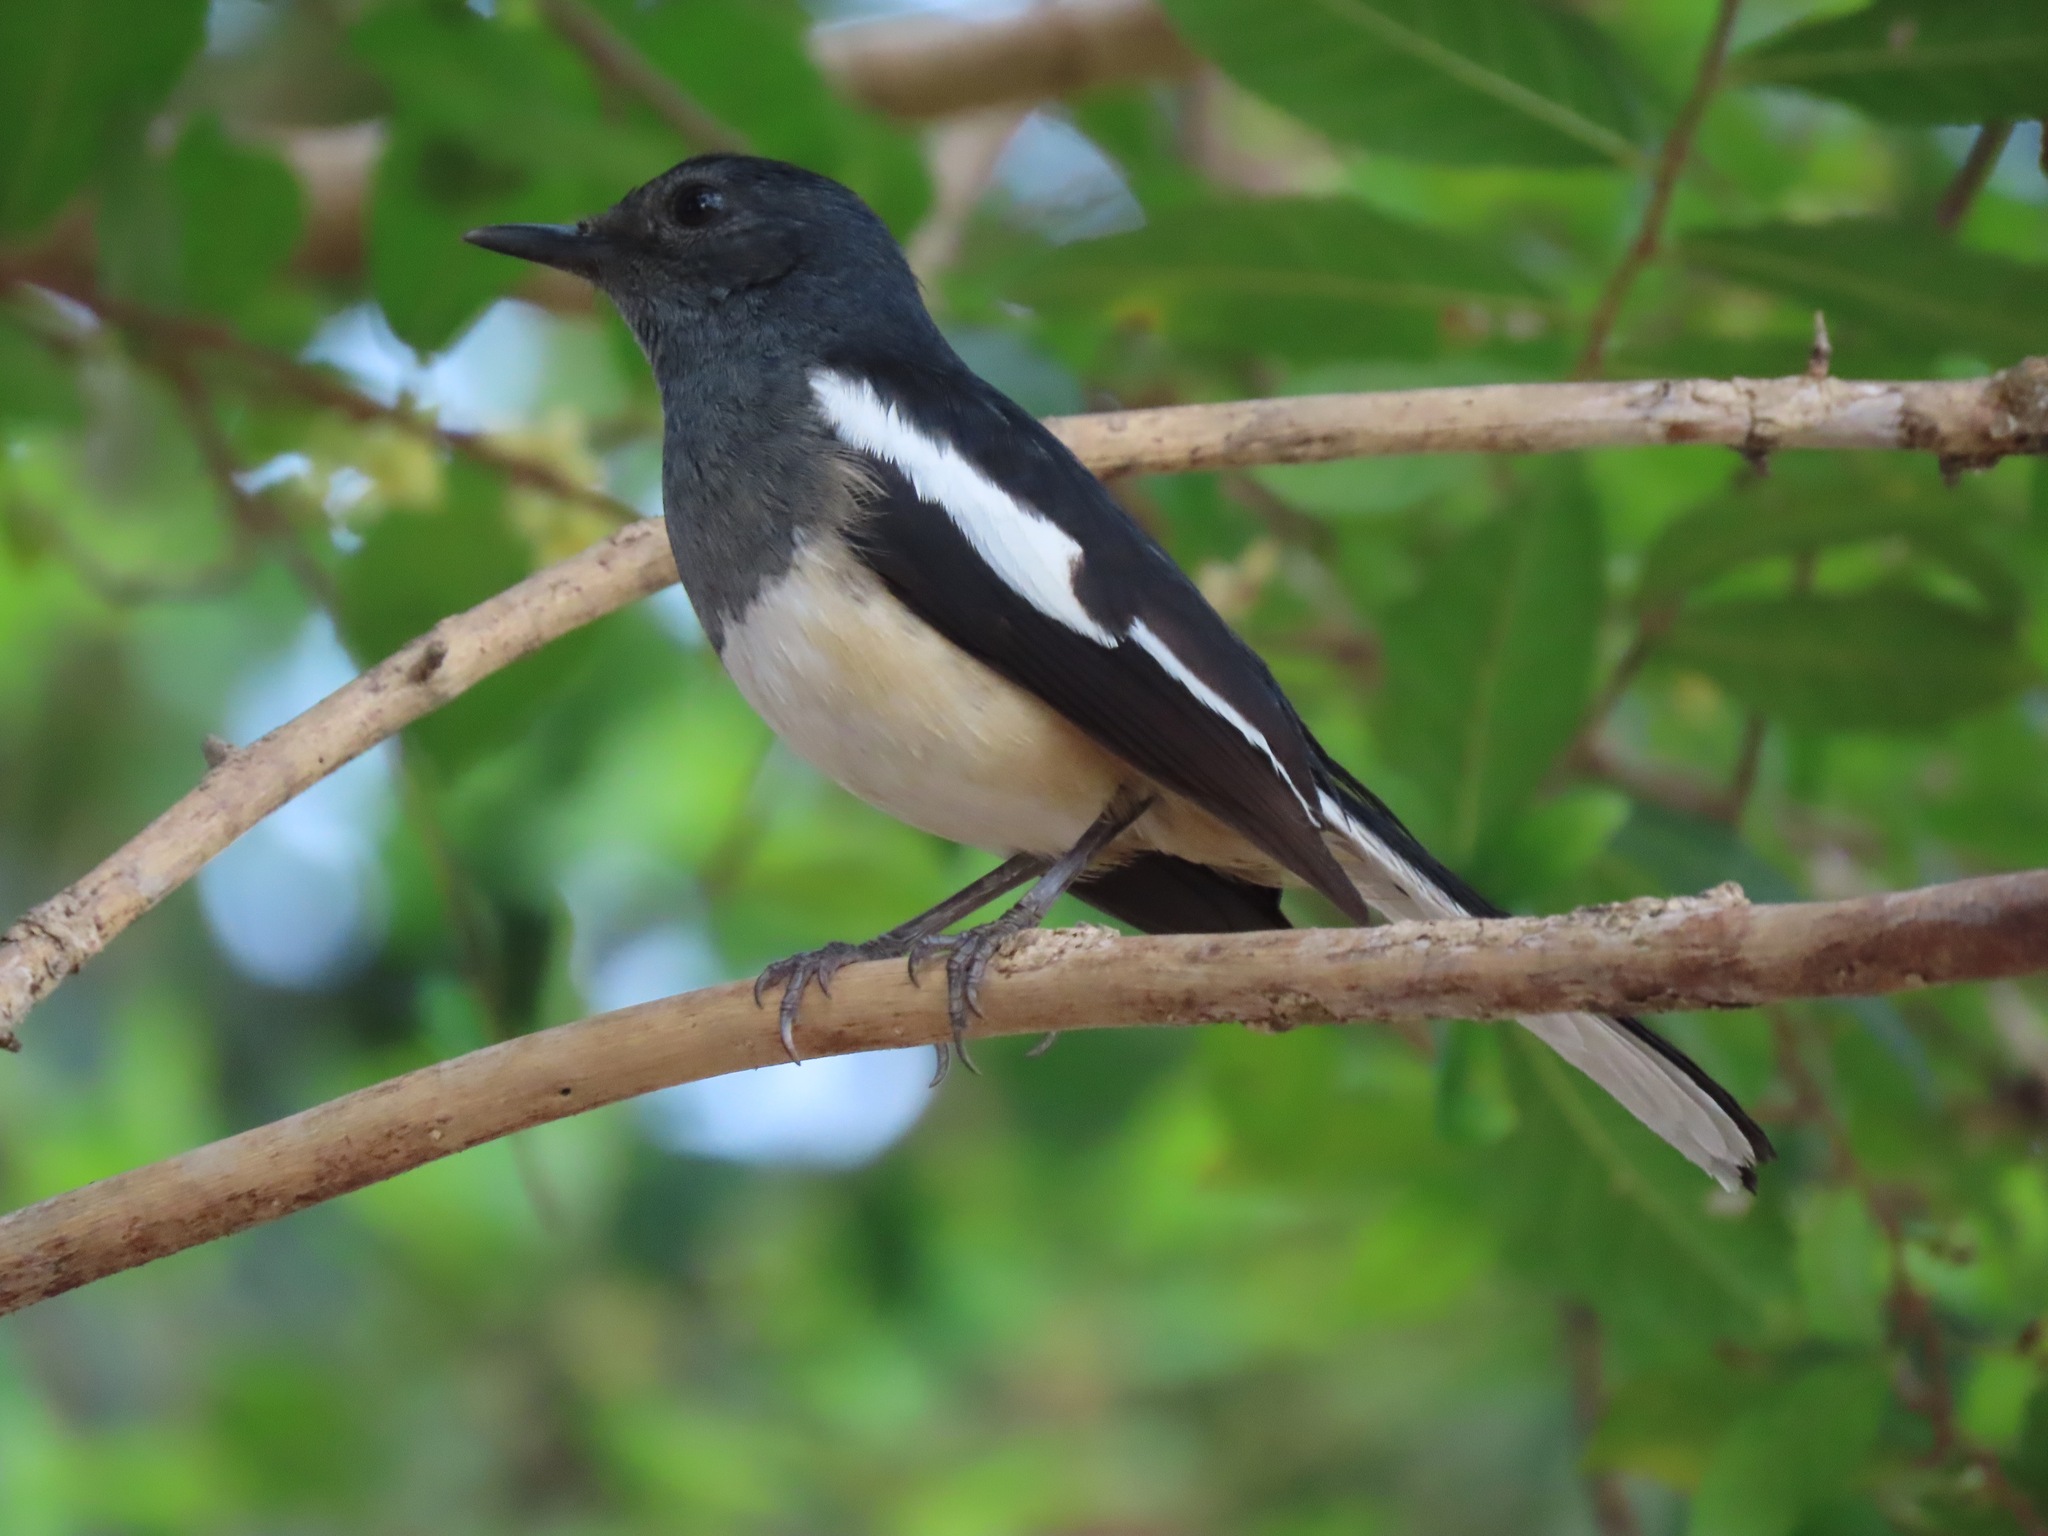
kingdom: Animalia
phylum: Chordata
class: Aves
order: Passeriformes
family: Muscicapidae
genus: Copsychus
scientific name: Copsychus saularis
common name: Oriental magpie-robin
